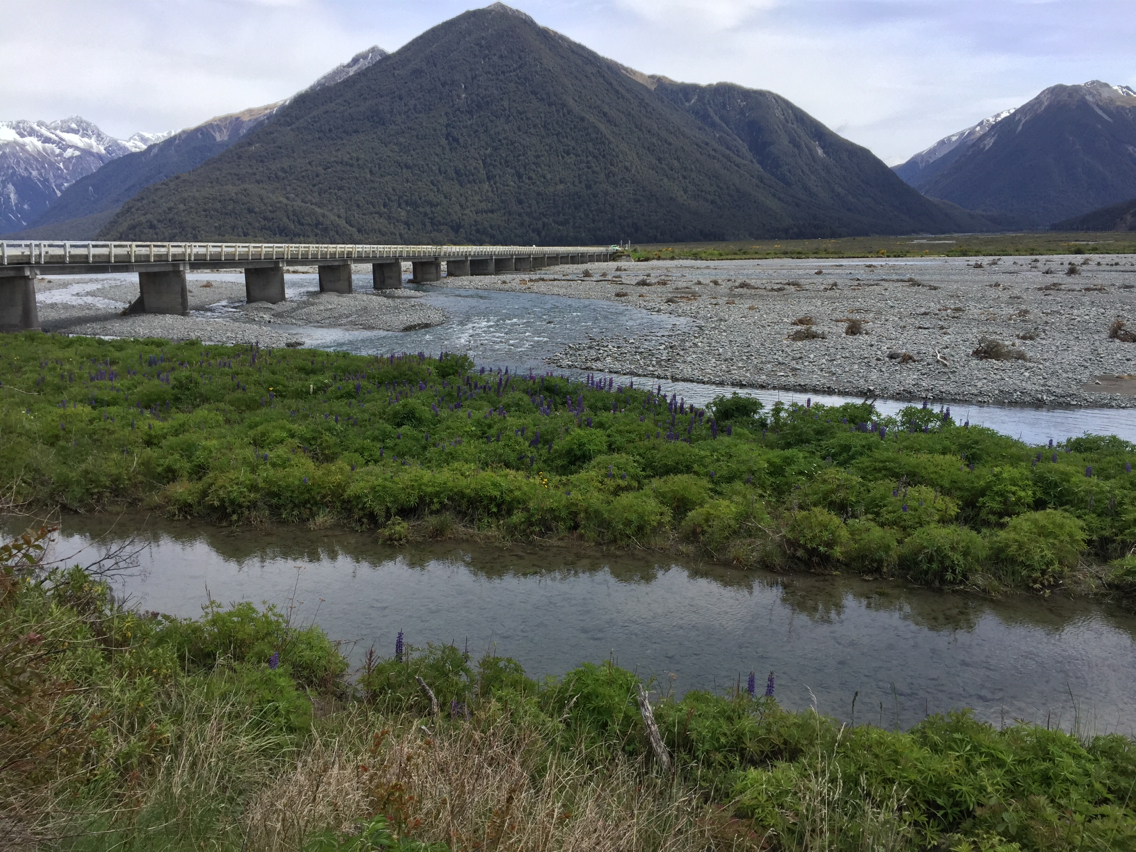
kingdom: Plantae
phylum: Tracheophyta
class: Magnoliopsida
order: Fabales
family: Fabaceae
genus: Lupinus
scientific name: Lupinus polyphyllus
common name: Garden lupin
